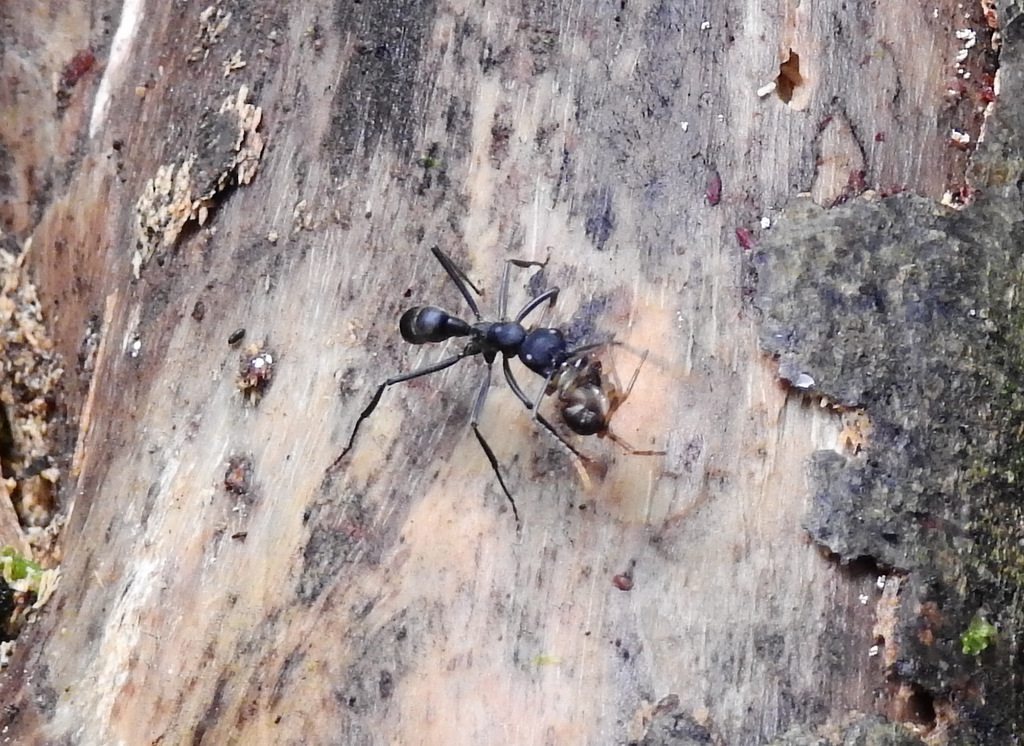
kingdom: Animalia
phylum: Arthropoda
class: Insecta
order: Hymenoptera
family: Formicidae
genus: Pachycondyla
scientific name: Pachycondyla apicalis
